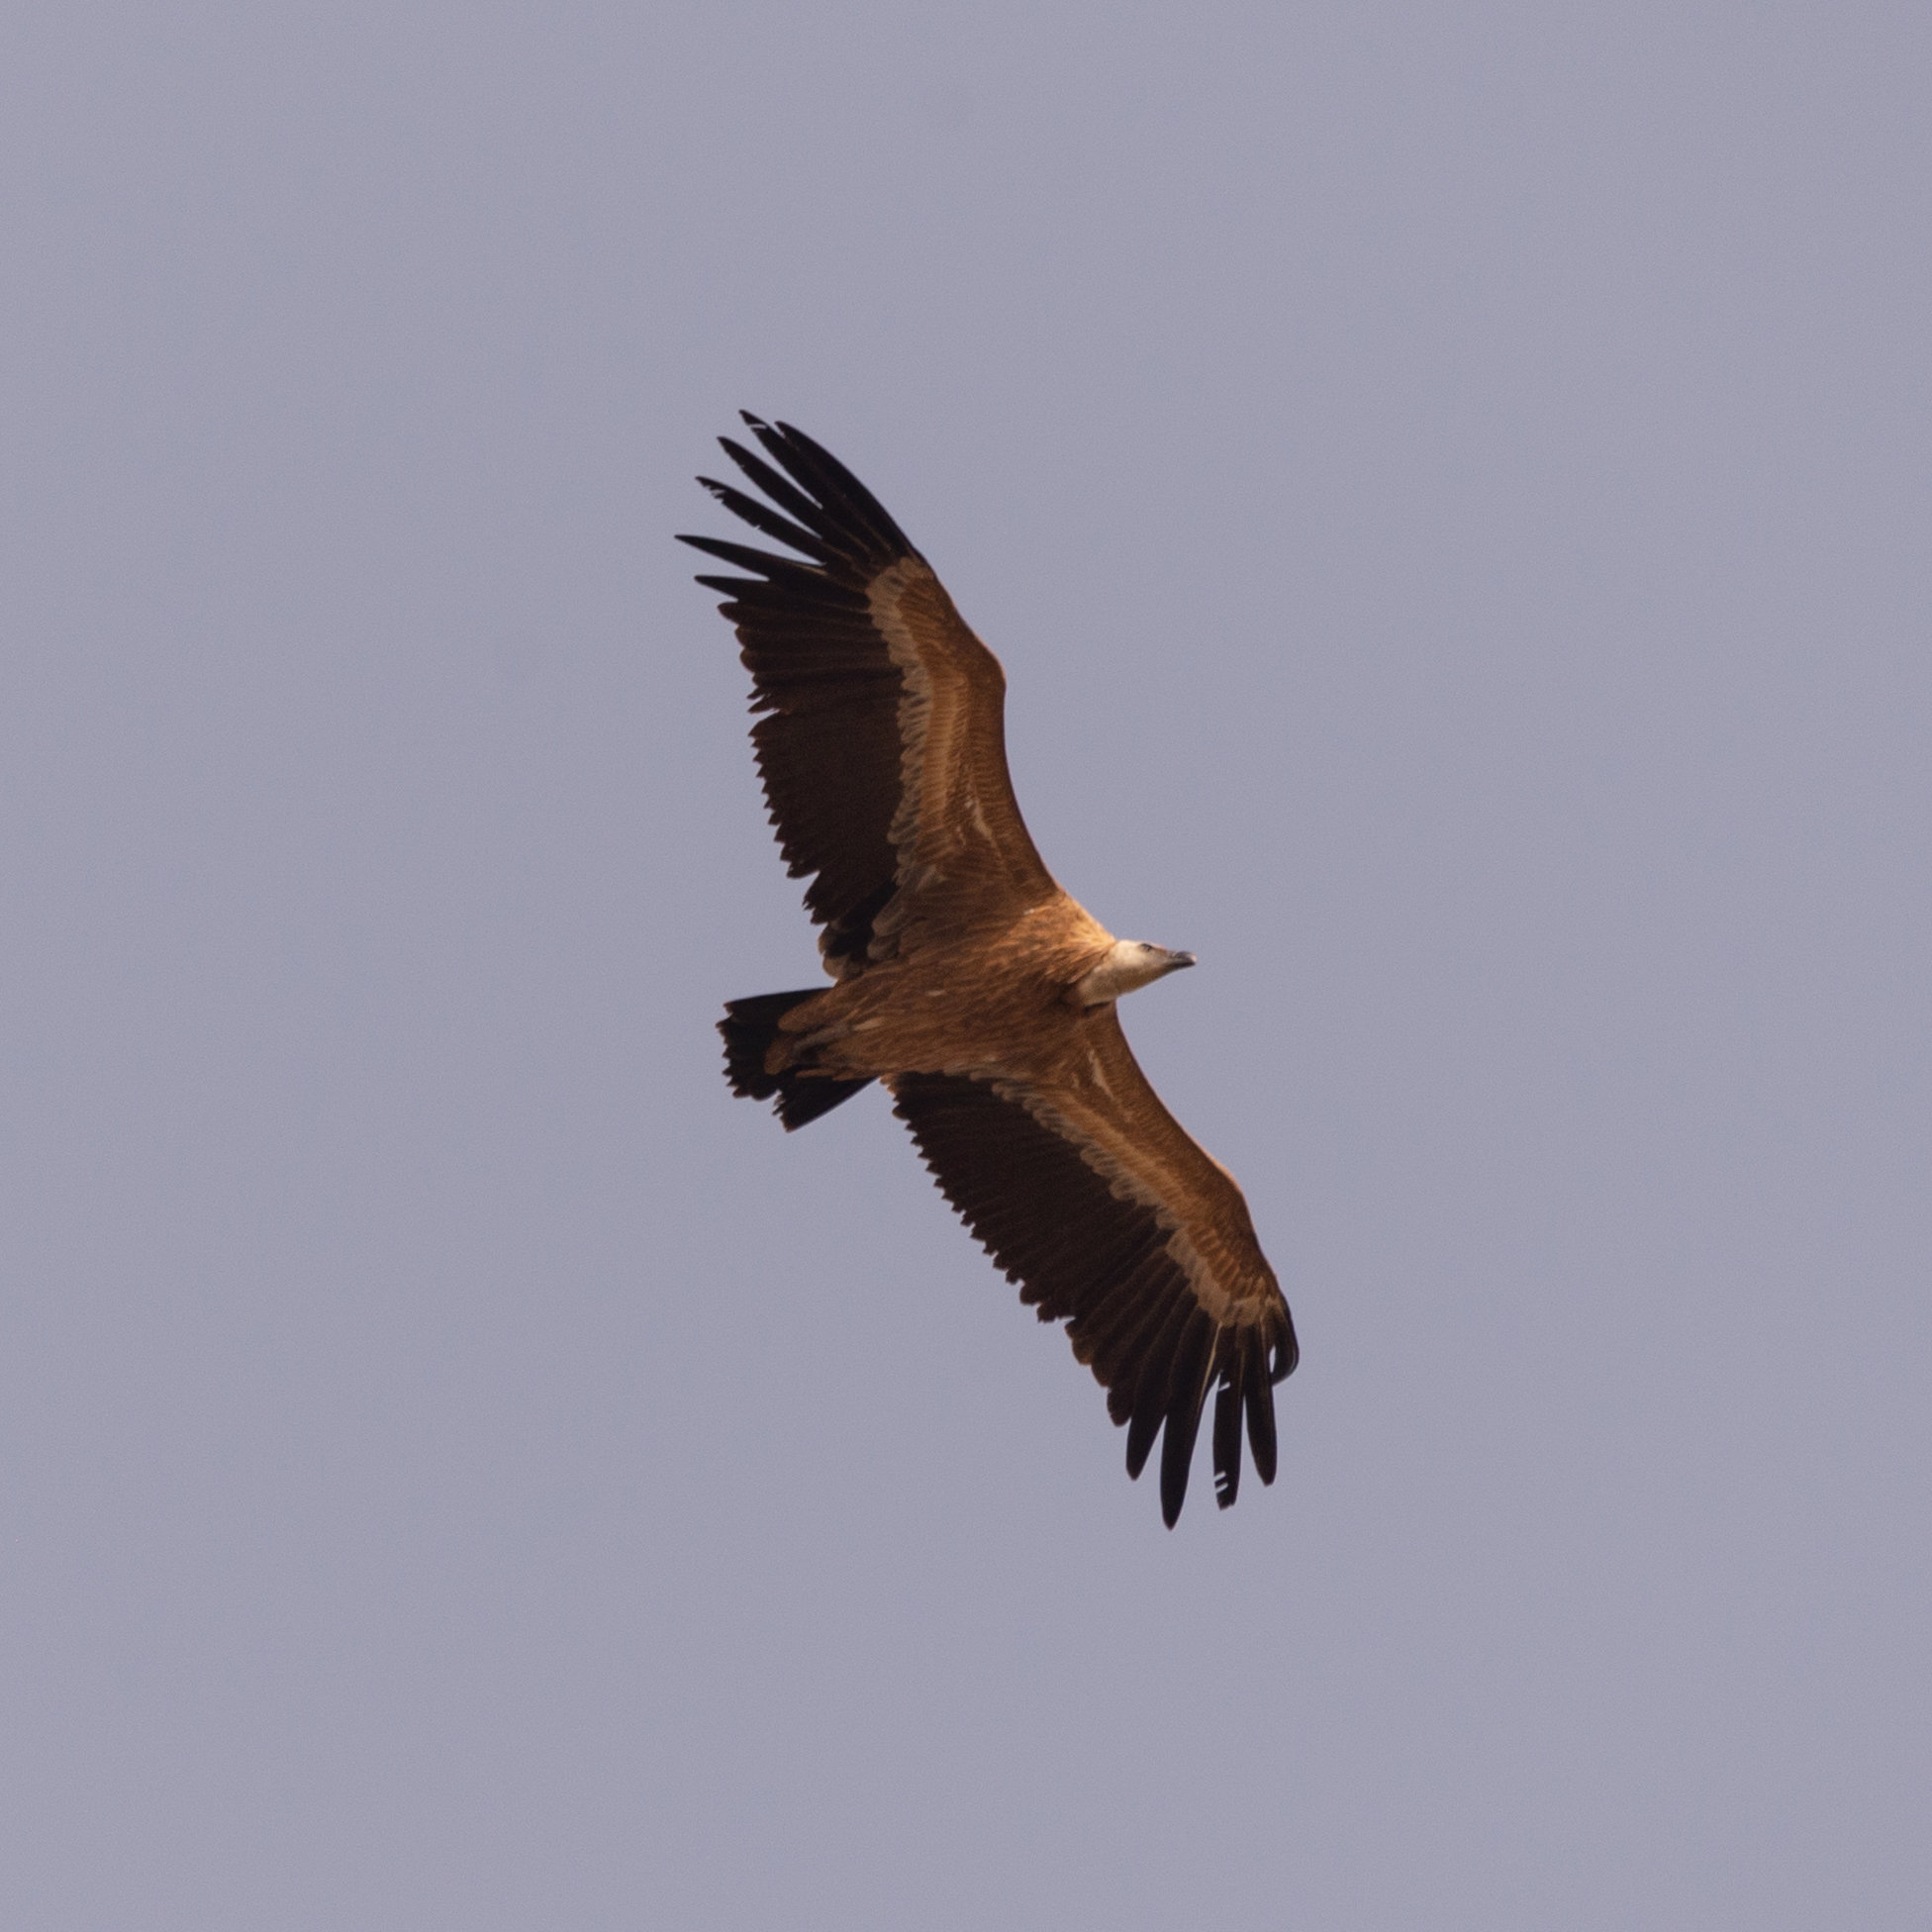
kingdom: Animalia
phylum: Chordata
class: Aves
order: Accipitriformes
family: Accipitridae
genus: Gyps
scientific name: Gyps fulvus
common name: Griffon vulture
